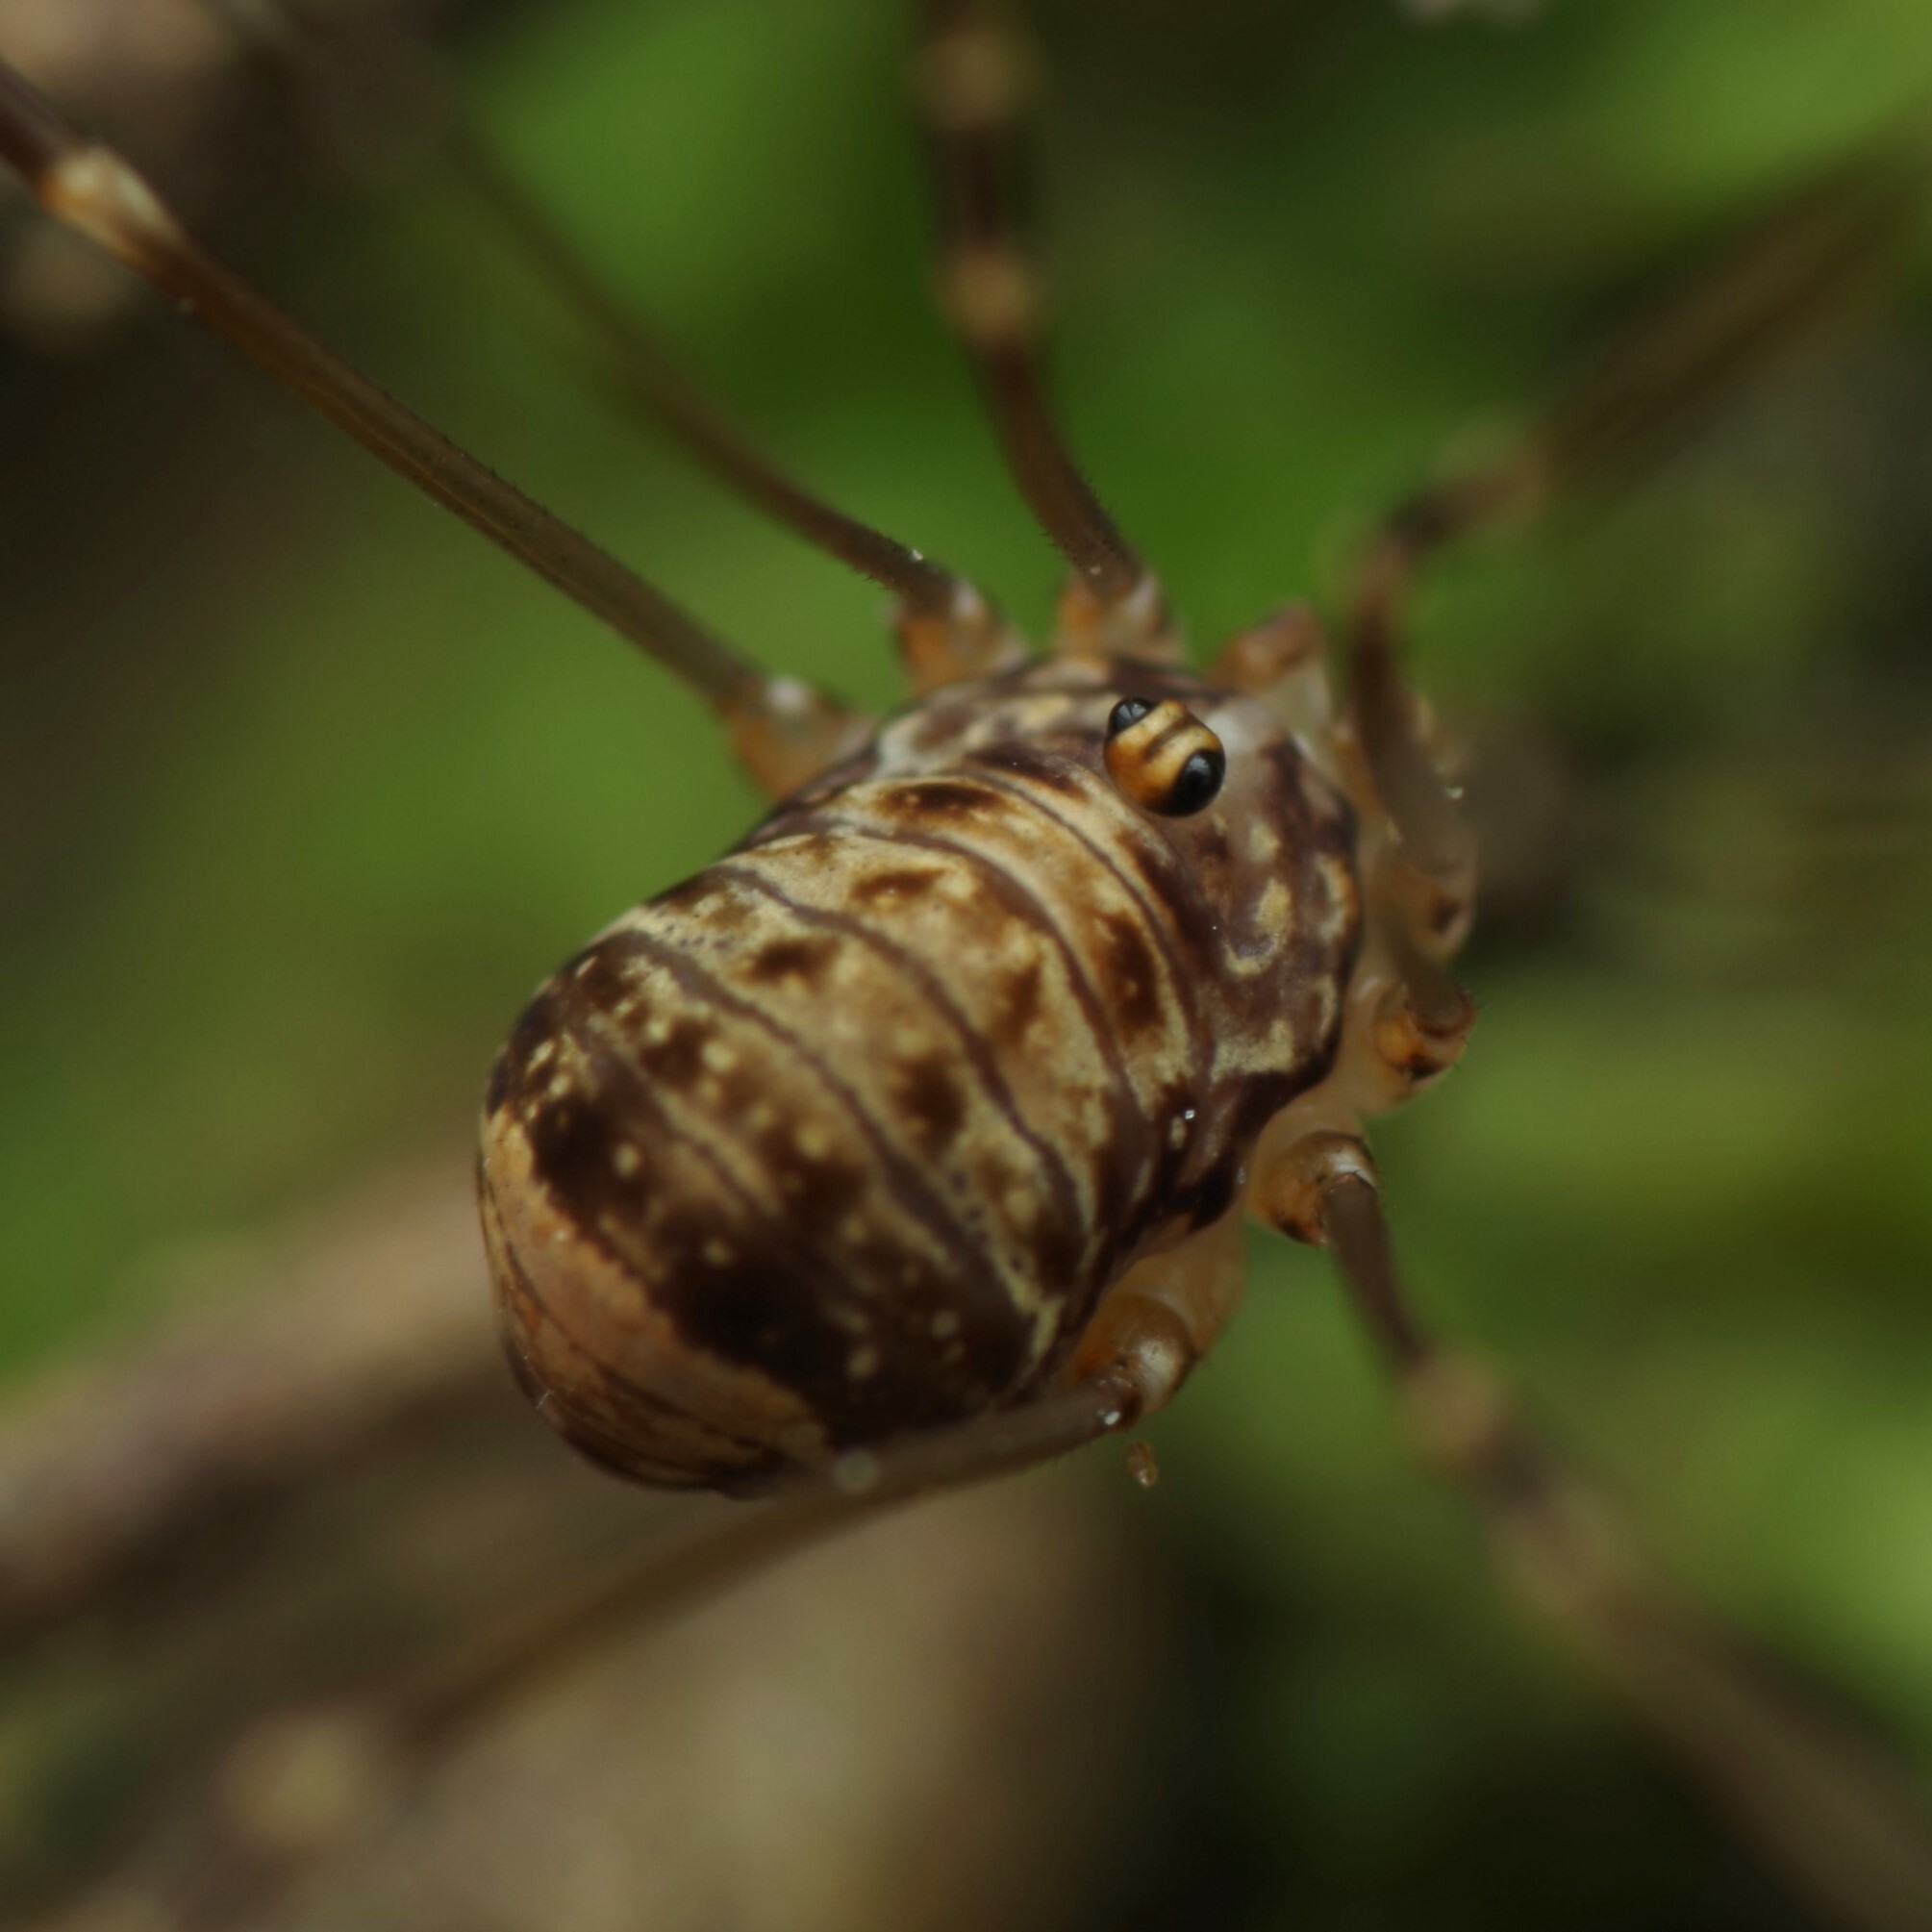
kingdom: Animalia
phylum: Arthropoda
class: Arachnida
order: Opiliones
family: Sclerosomatidae
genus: Leiobunum
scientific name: Leiobunum blackwalli
